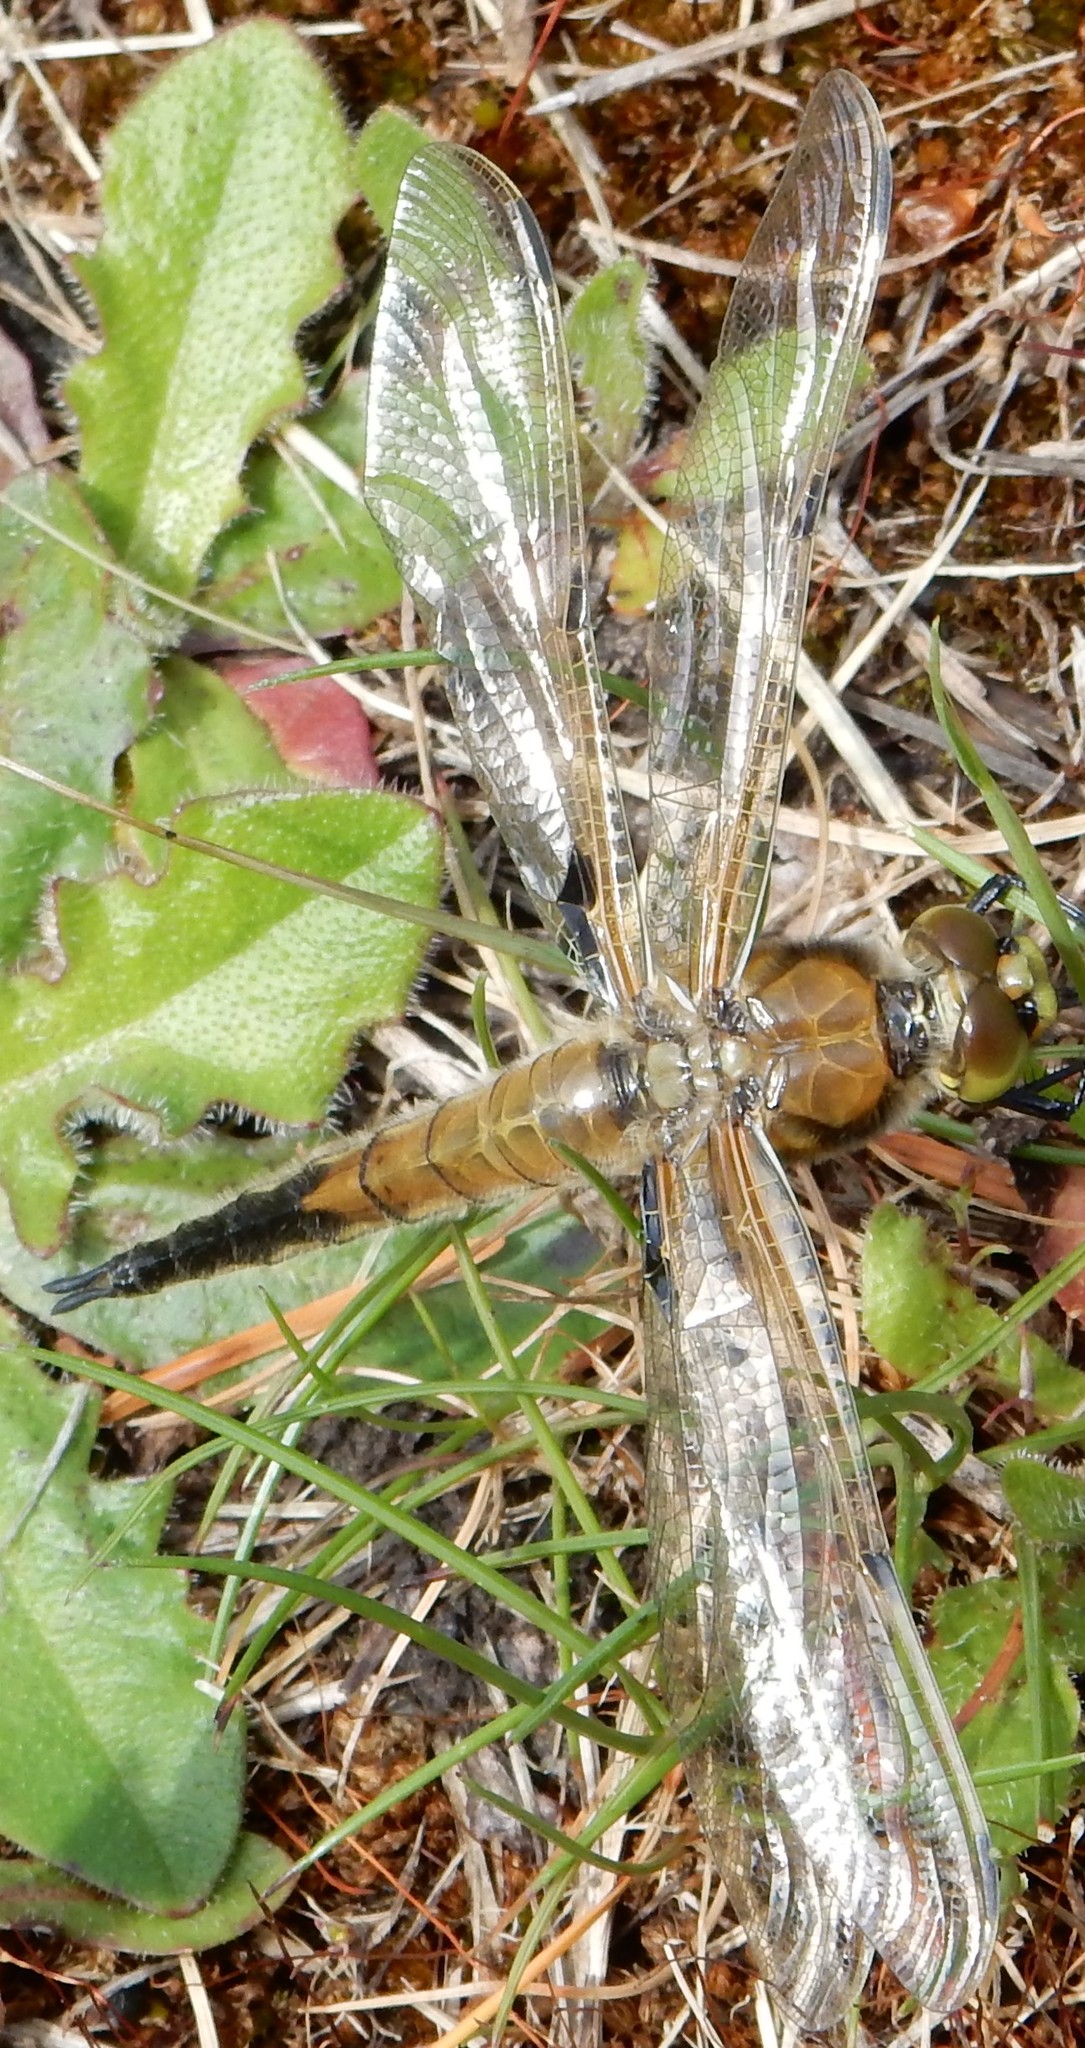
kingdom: Animalia
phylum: Arthropoda
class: Insecta
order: Odonata
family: Libellulidae
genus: Libellula
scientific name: Libellula quadrimaculata
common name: Four-spotted chaser
